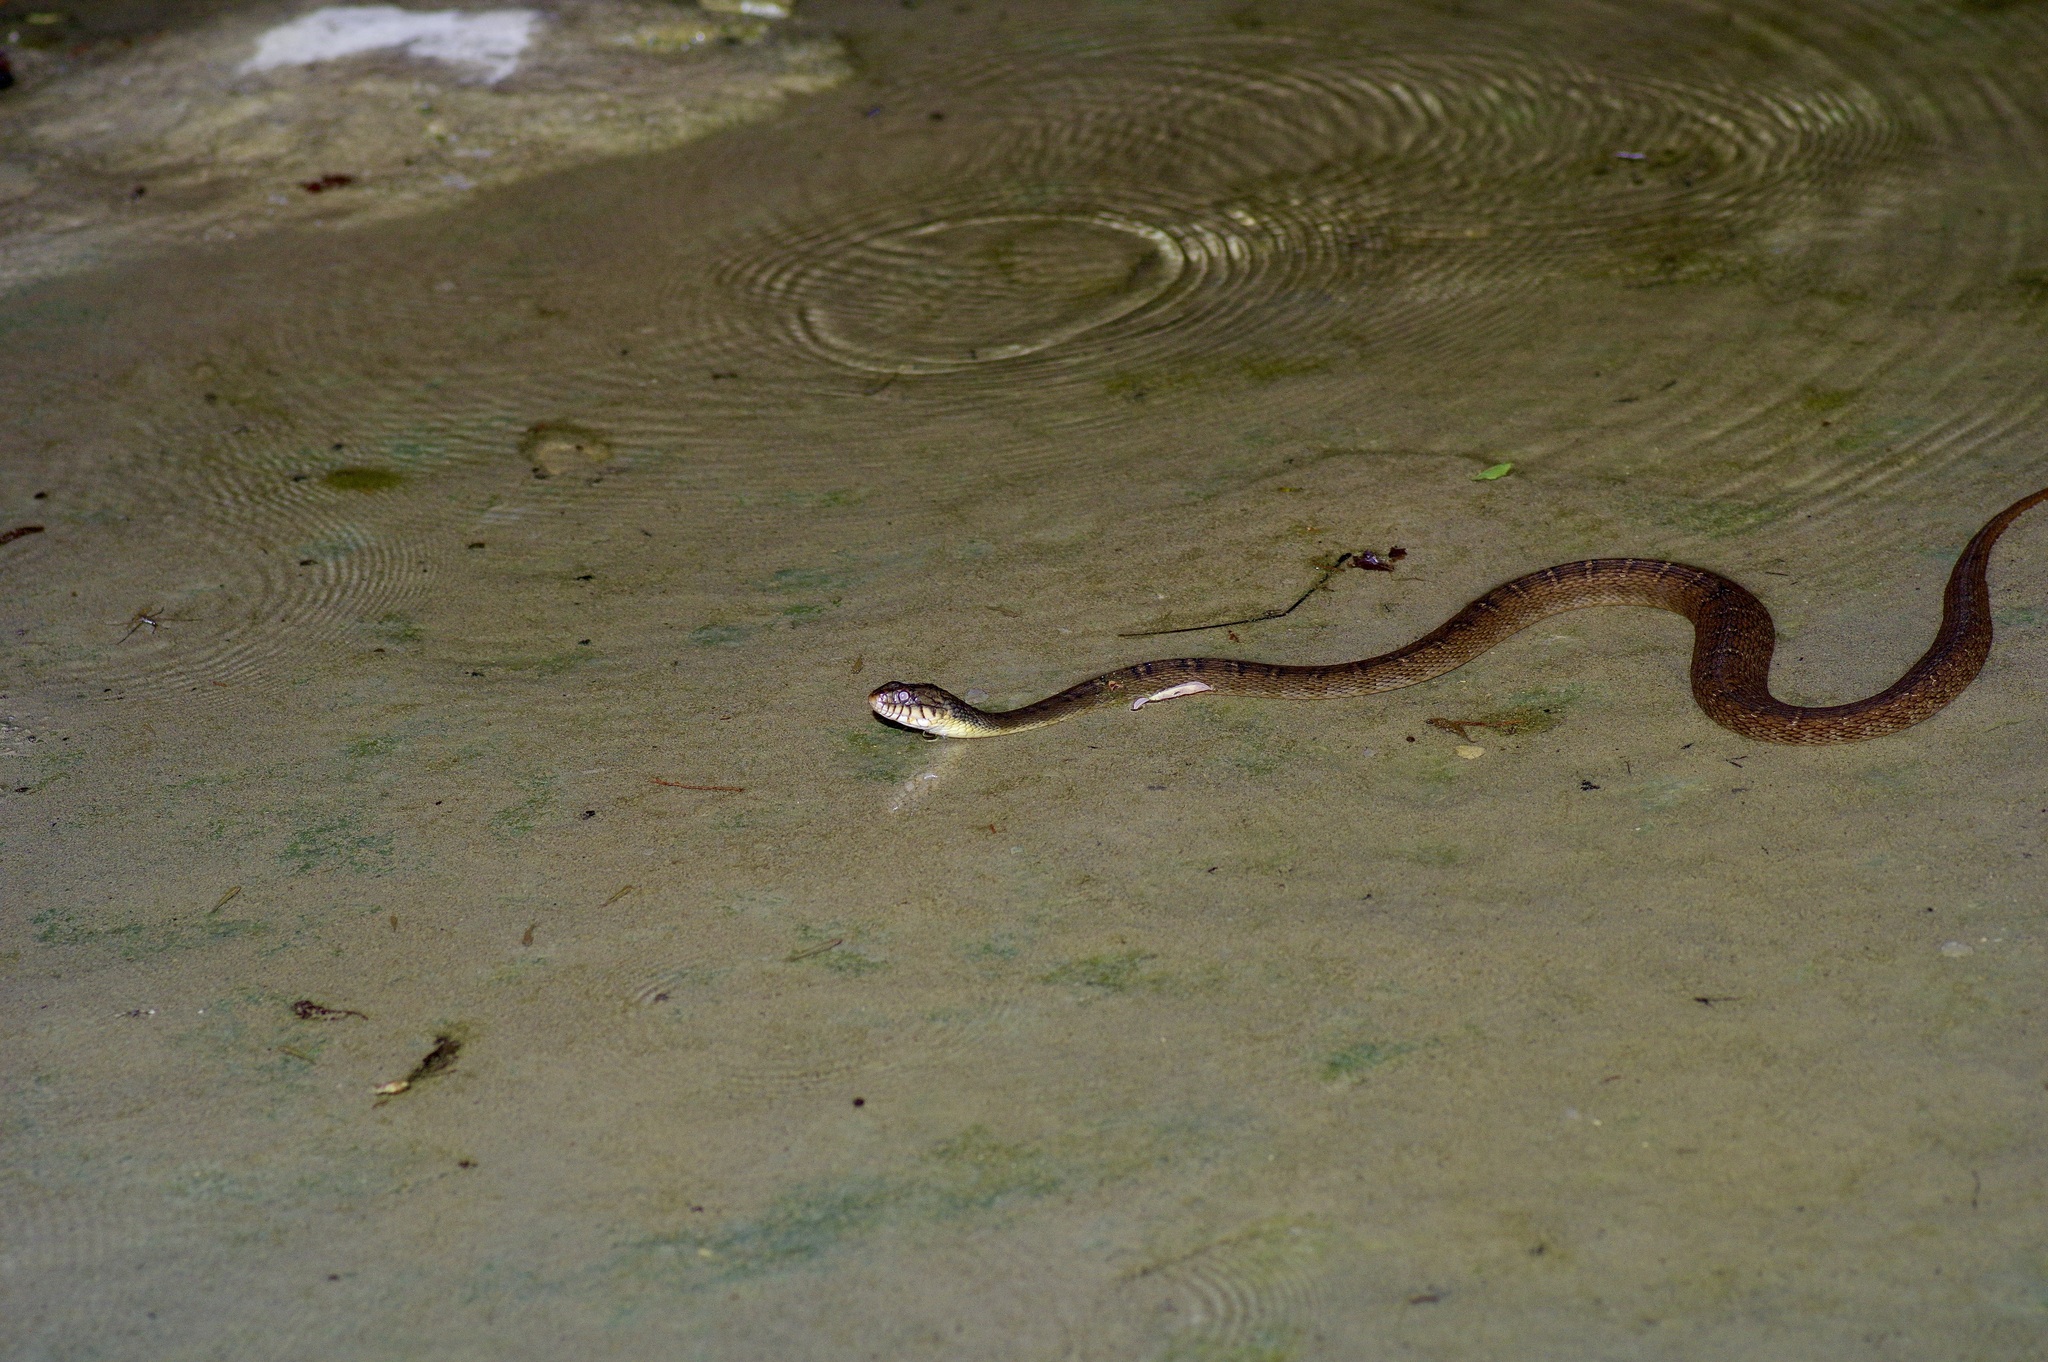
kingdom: Animalia
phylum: Chordata
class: Squamata
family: Colubridae
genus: Nerodia
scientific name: Nerodia erythrogaster
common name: Plainbelly water snake
